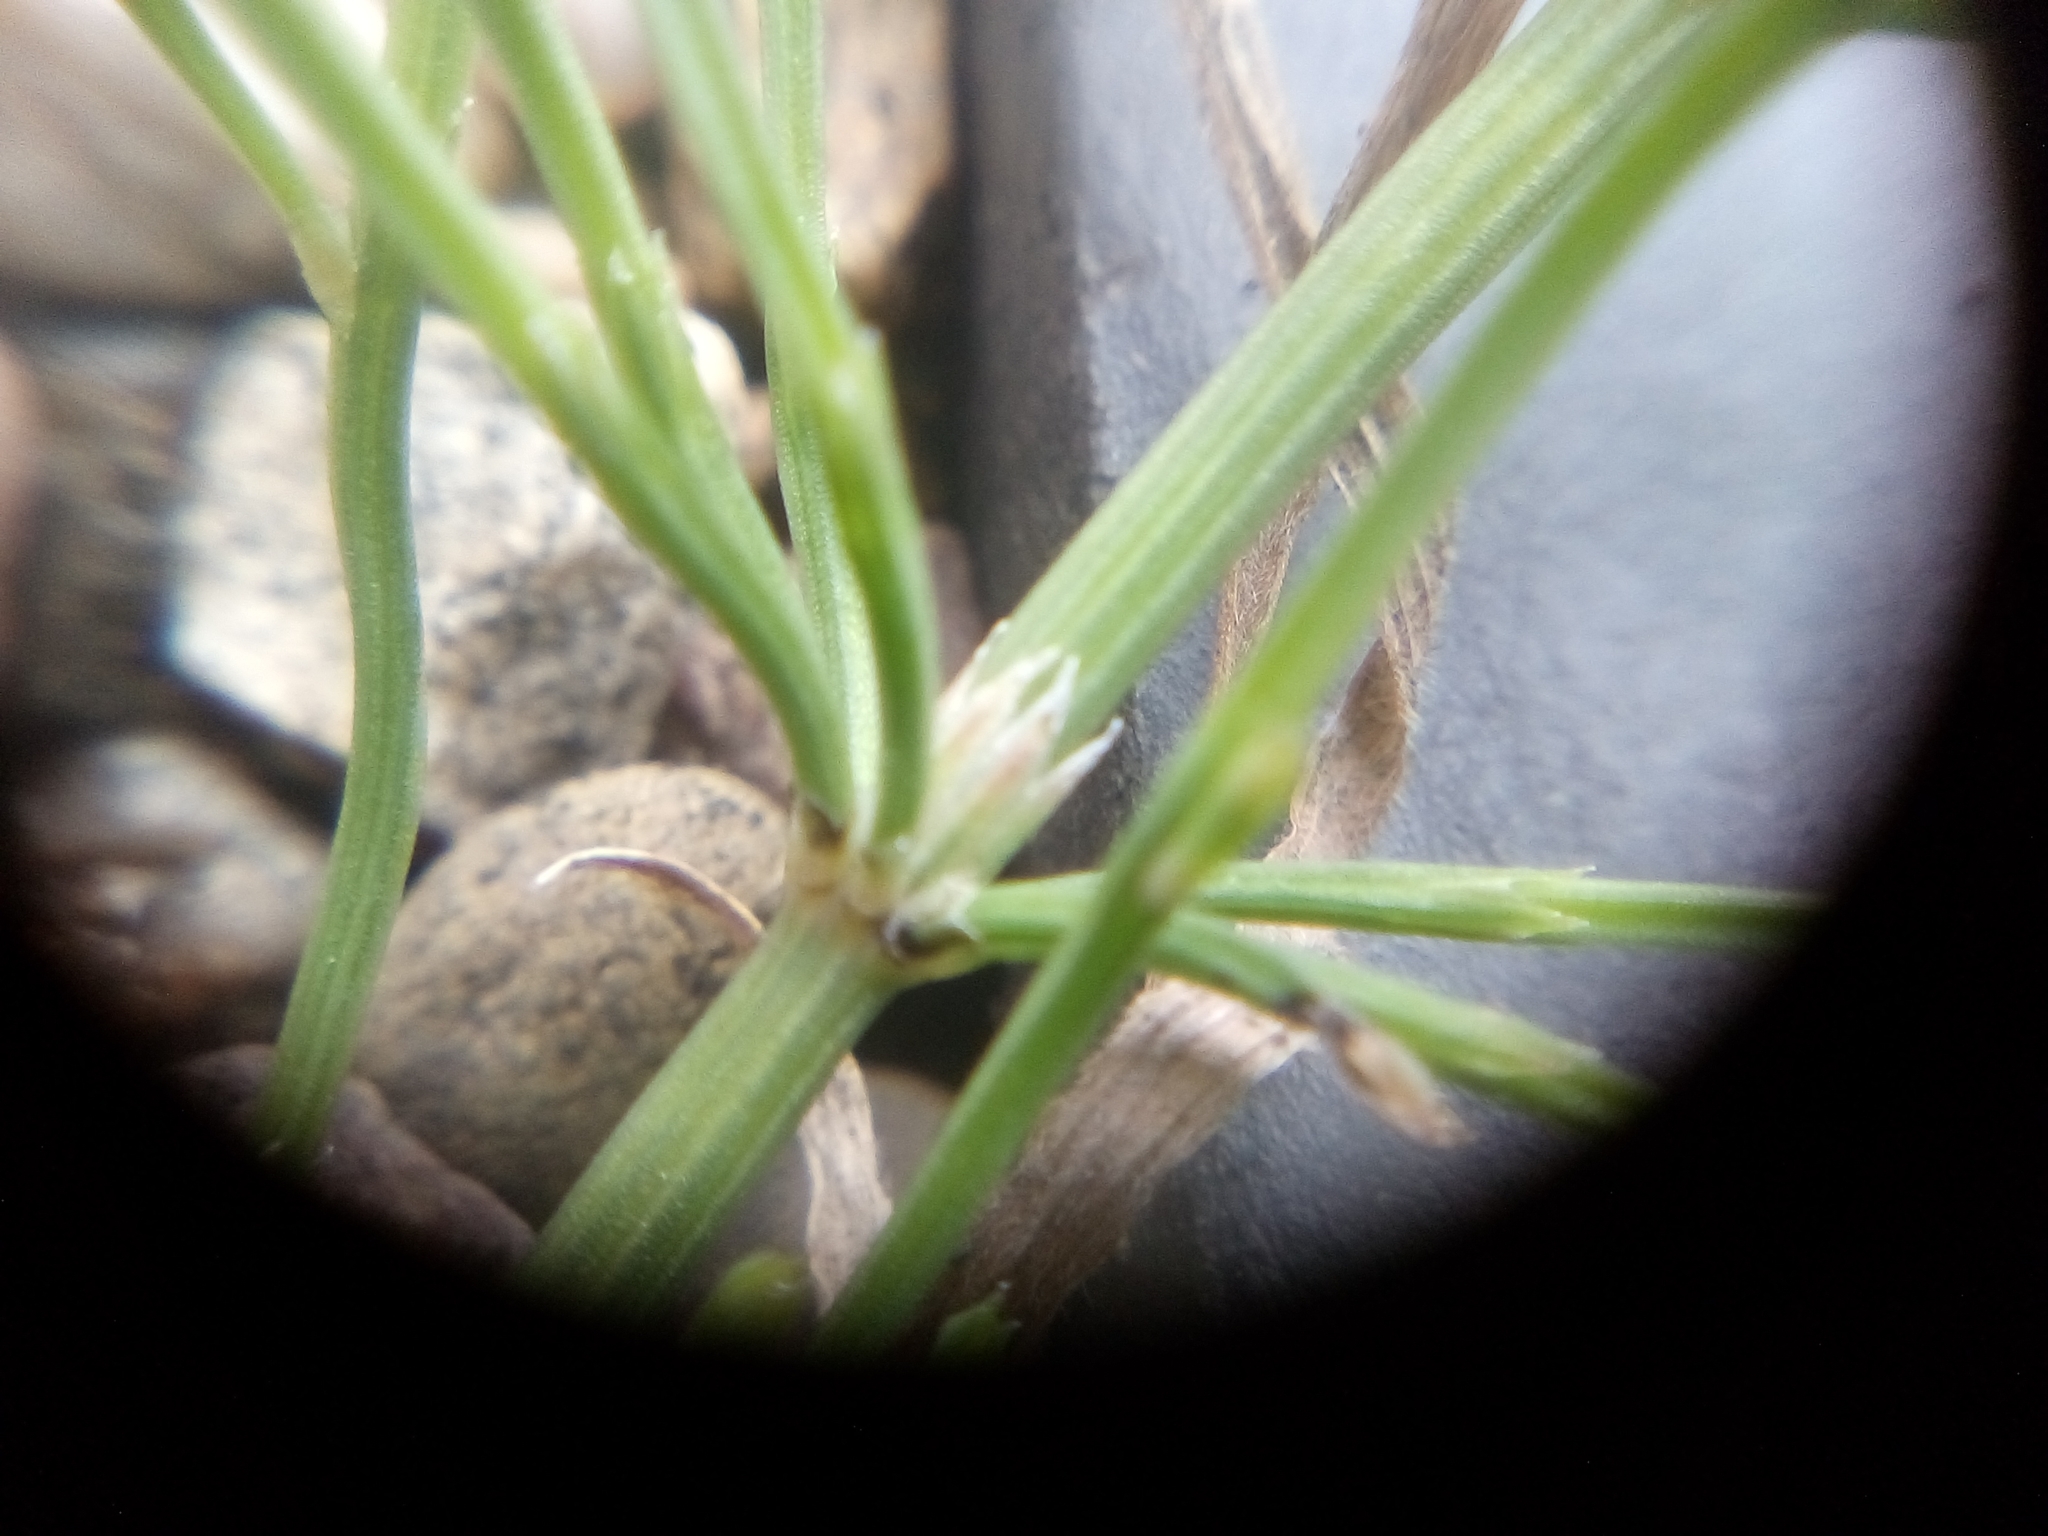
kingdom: Plantae
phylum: Tracheophyta
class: Polypodiopsida
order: Equisetales
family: Equisetaceae
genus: Equisetum
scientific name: Equisetum arvense
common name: Field horsetail
